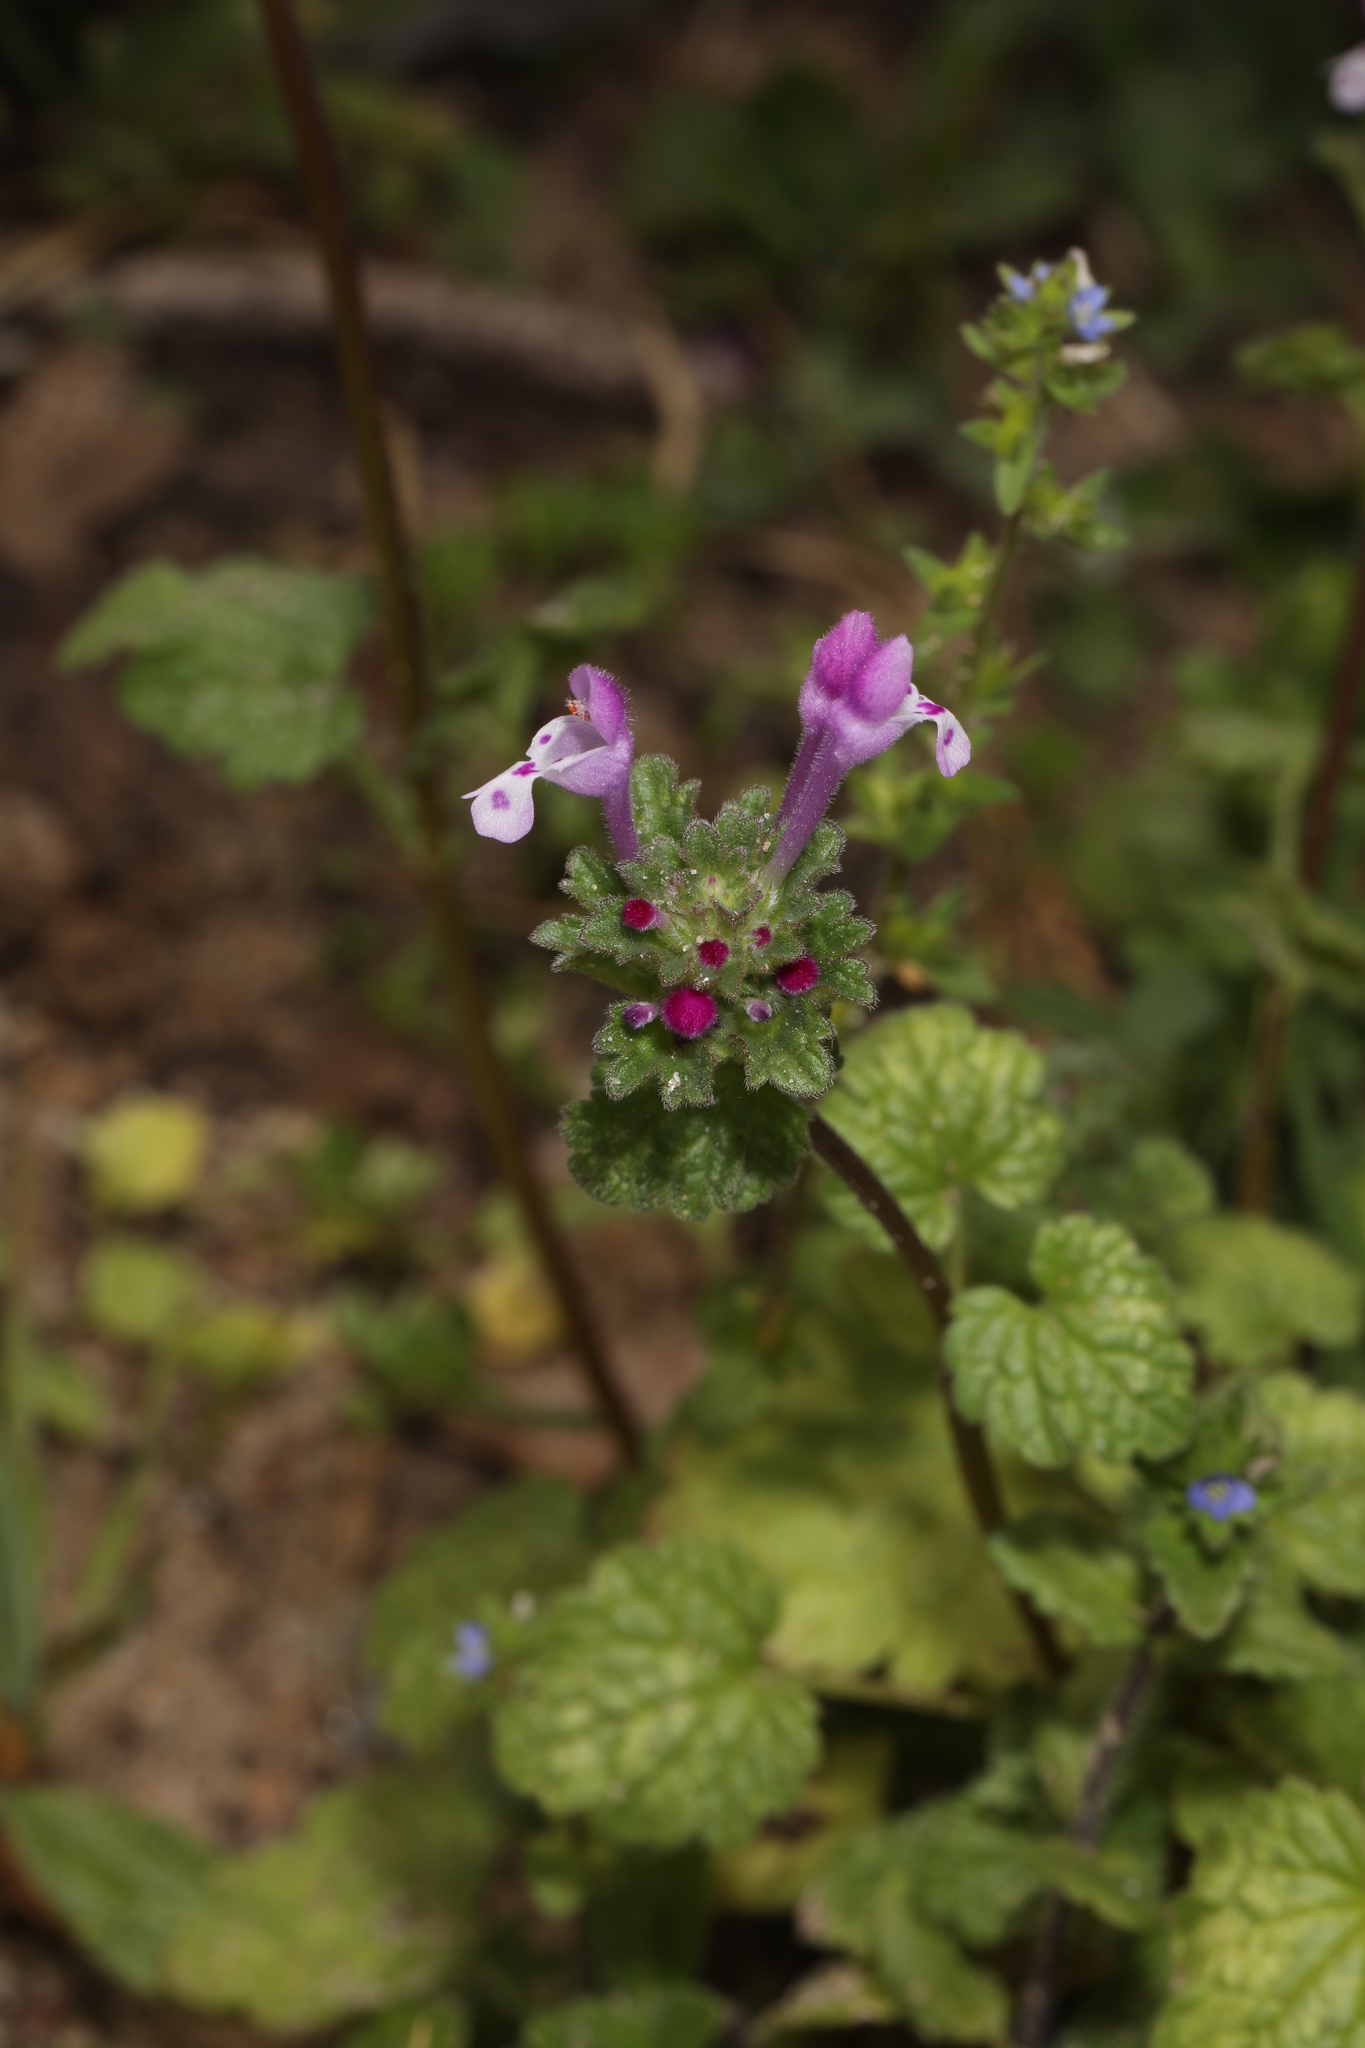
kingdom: Plantae
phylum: Tracheophyta
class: Magnoliopsida
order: Lamiales
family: Lamiaceae
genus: Lamium
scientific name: Lamium amplexicaule
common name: Henbit dead-nettle
